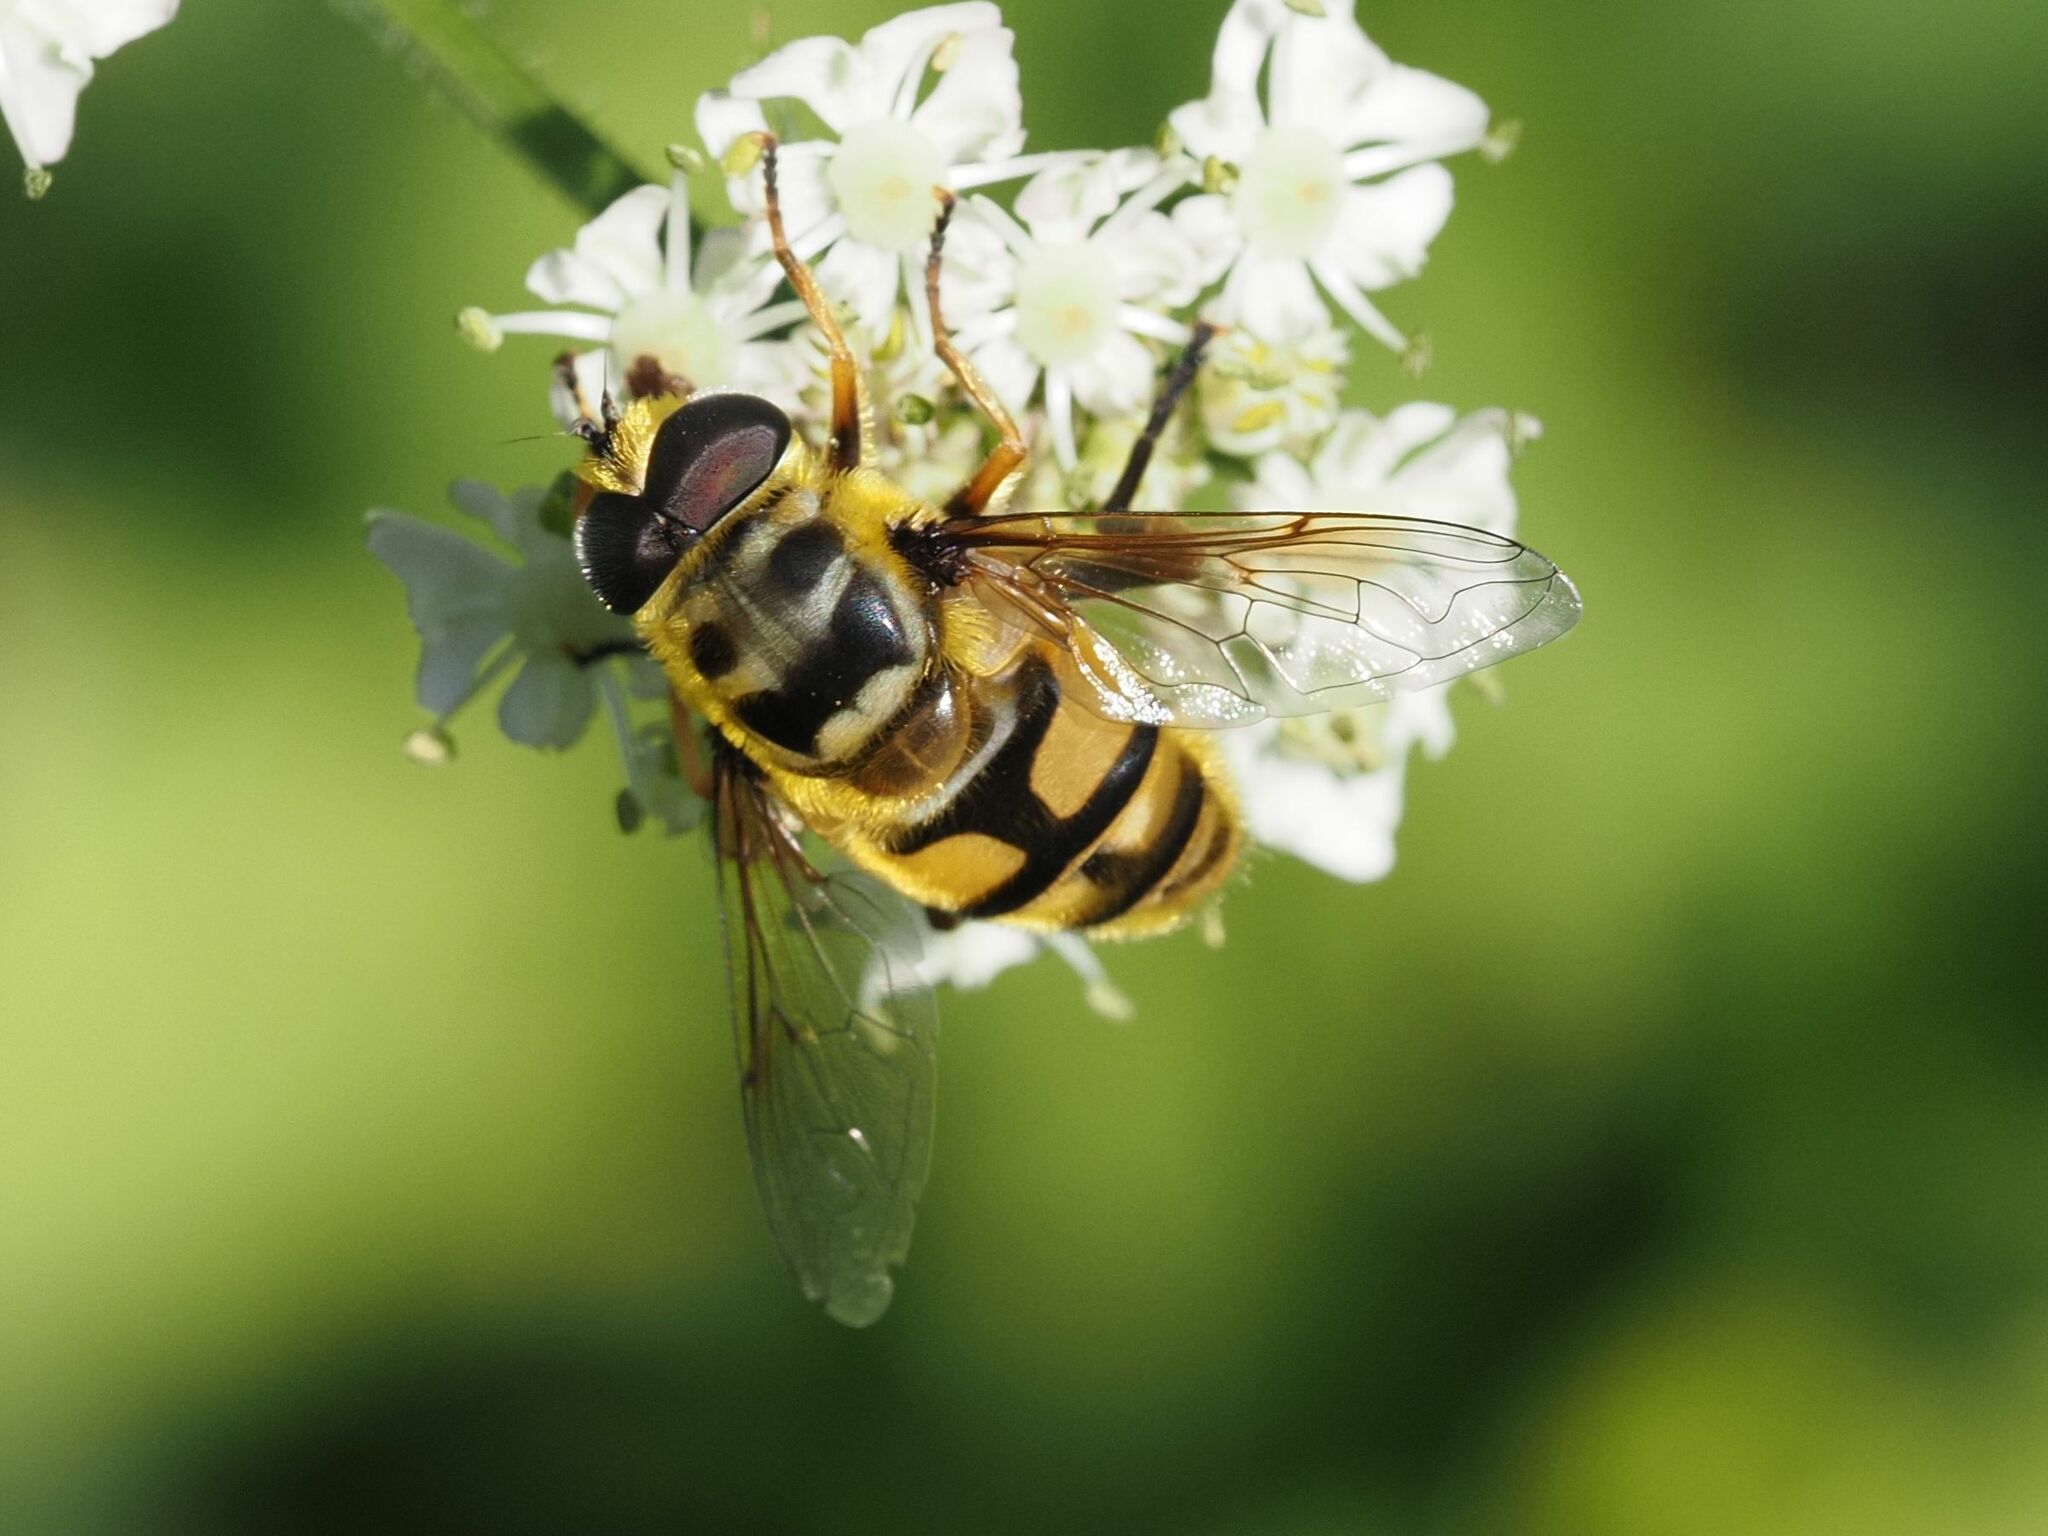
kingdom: Animalia
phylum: Arthropoda
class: Insecta
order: Diptera
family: Syrphidae
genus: Myathropa
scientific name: Myathropa florea
